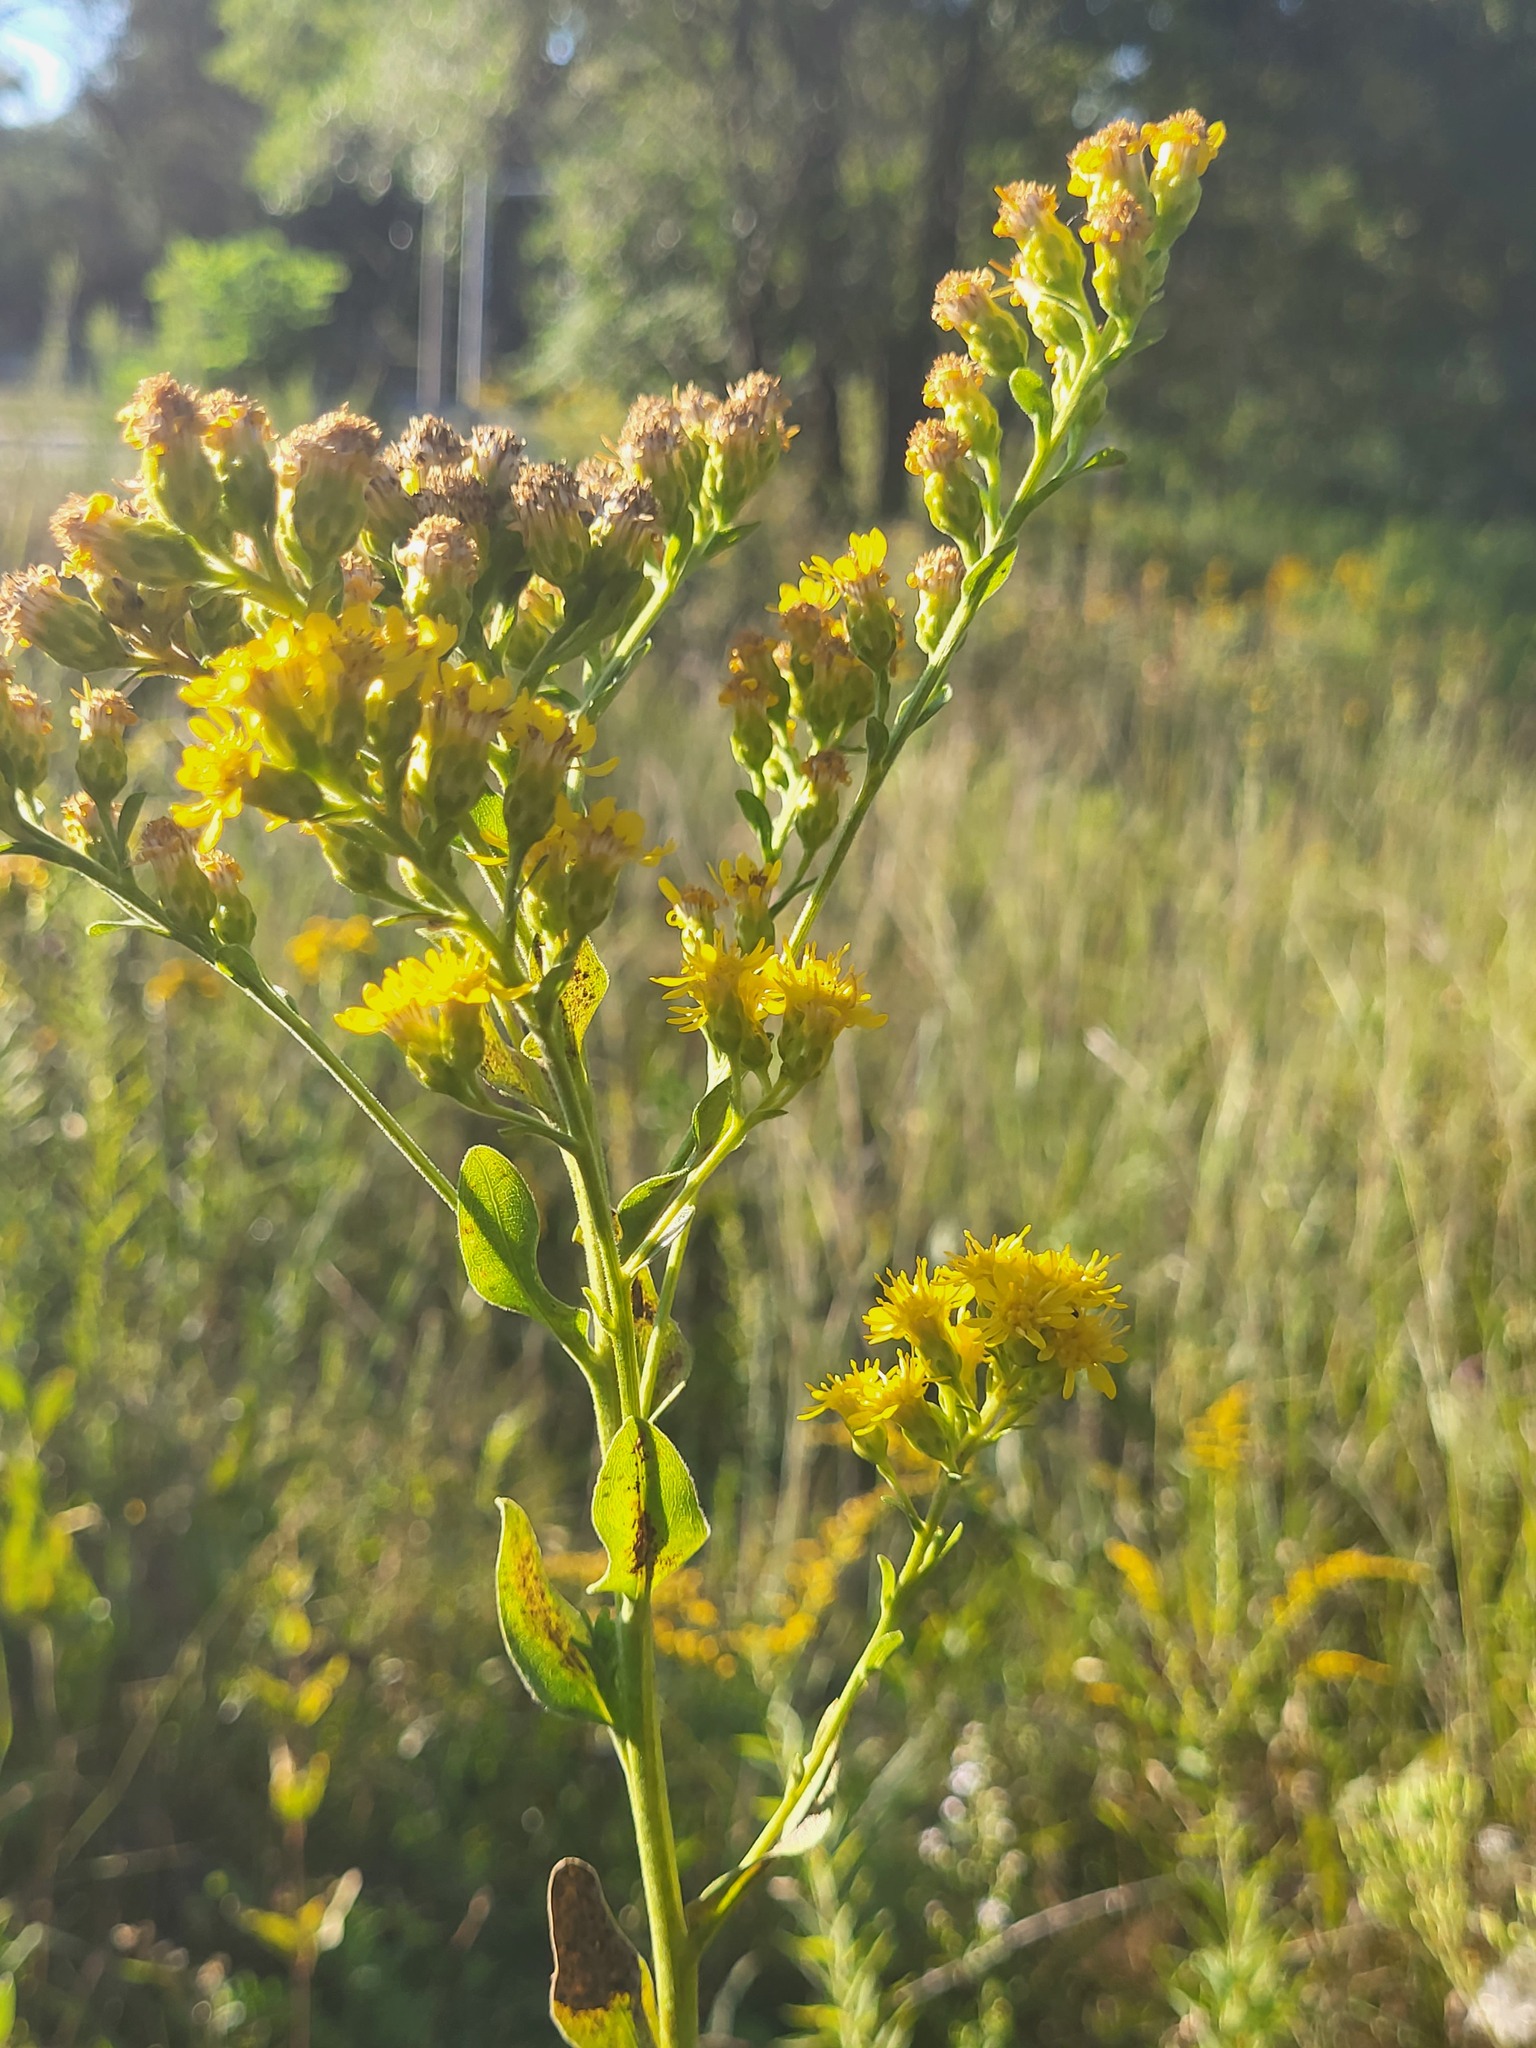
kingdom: Plantae
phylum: Tracheophyta
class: Magnoliopsida
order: Asterales
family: Asteraceae
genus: Solidago
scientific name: Solidago rigida
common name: Rigid goldenrod
